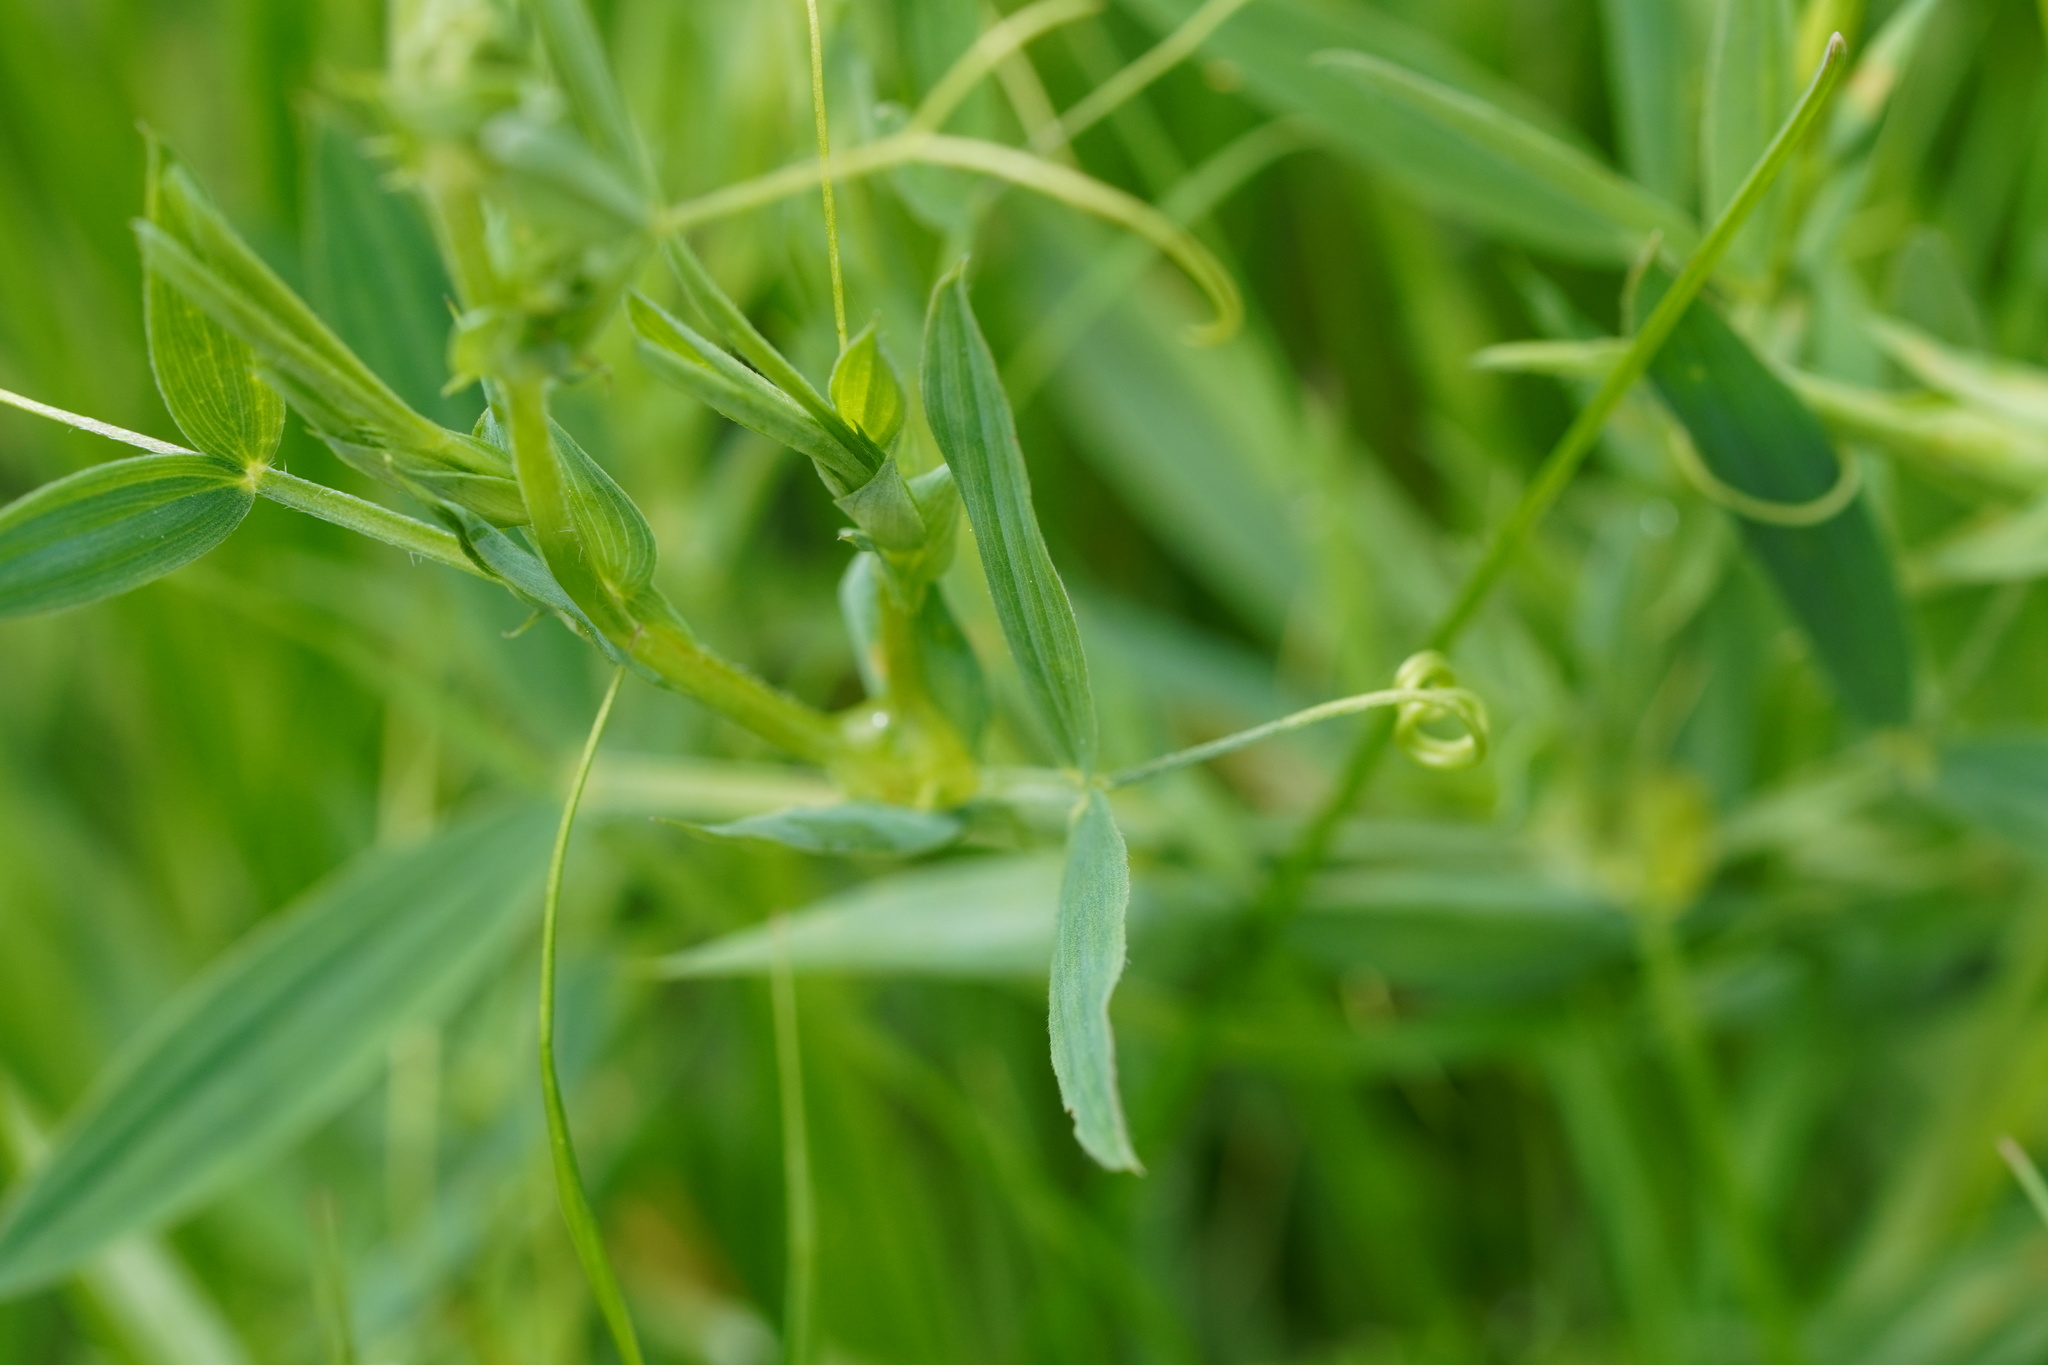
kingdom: Plantae
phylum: Tracheophyta
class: Magnoliopsida
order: Fabales
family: Fabaceae
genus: Lathyrus
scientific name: Lathyrus pratensis
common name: Meadow vetchling
